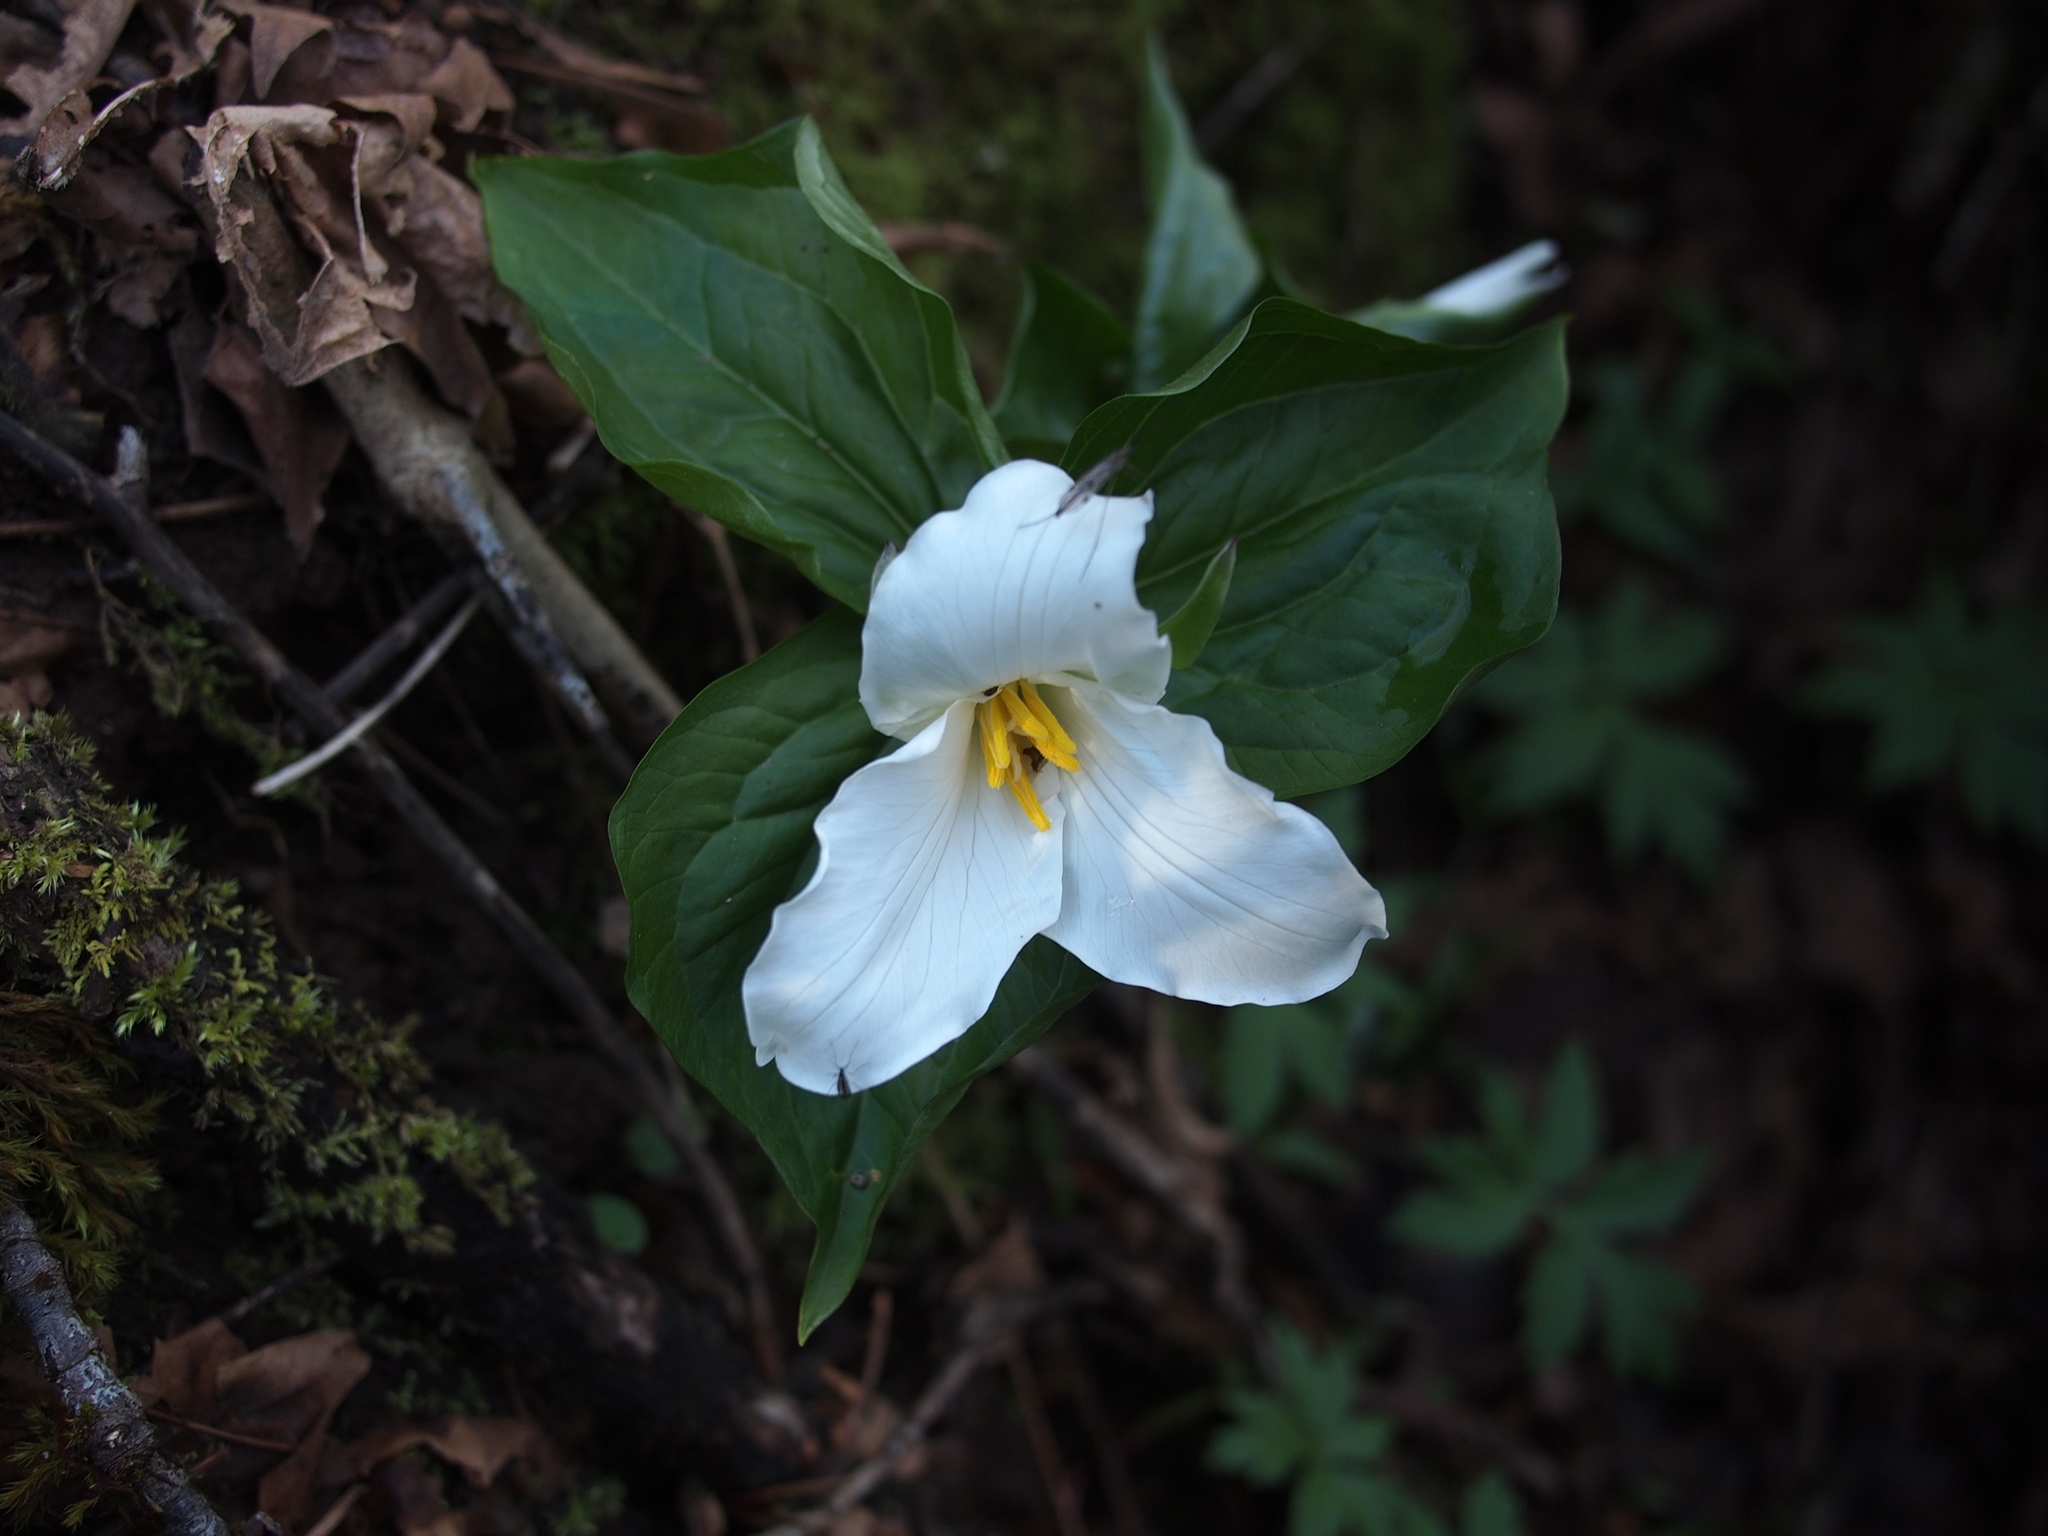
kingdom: Plantae
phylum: Tracheophyta
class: Liliopsida
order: Liliales
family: Melanthiaceae
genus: Trillium
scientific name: Trillium ovatum
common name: Pacific trillium
